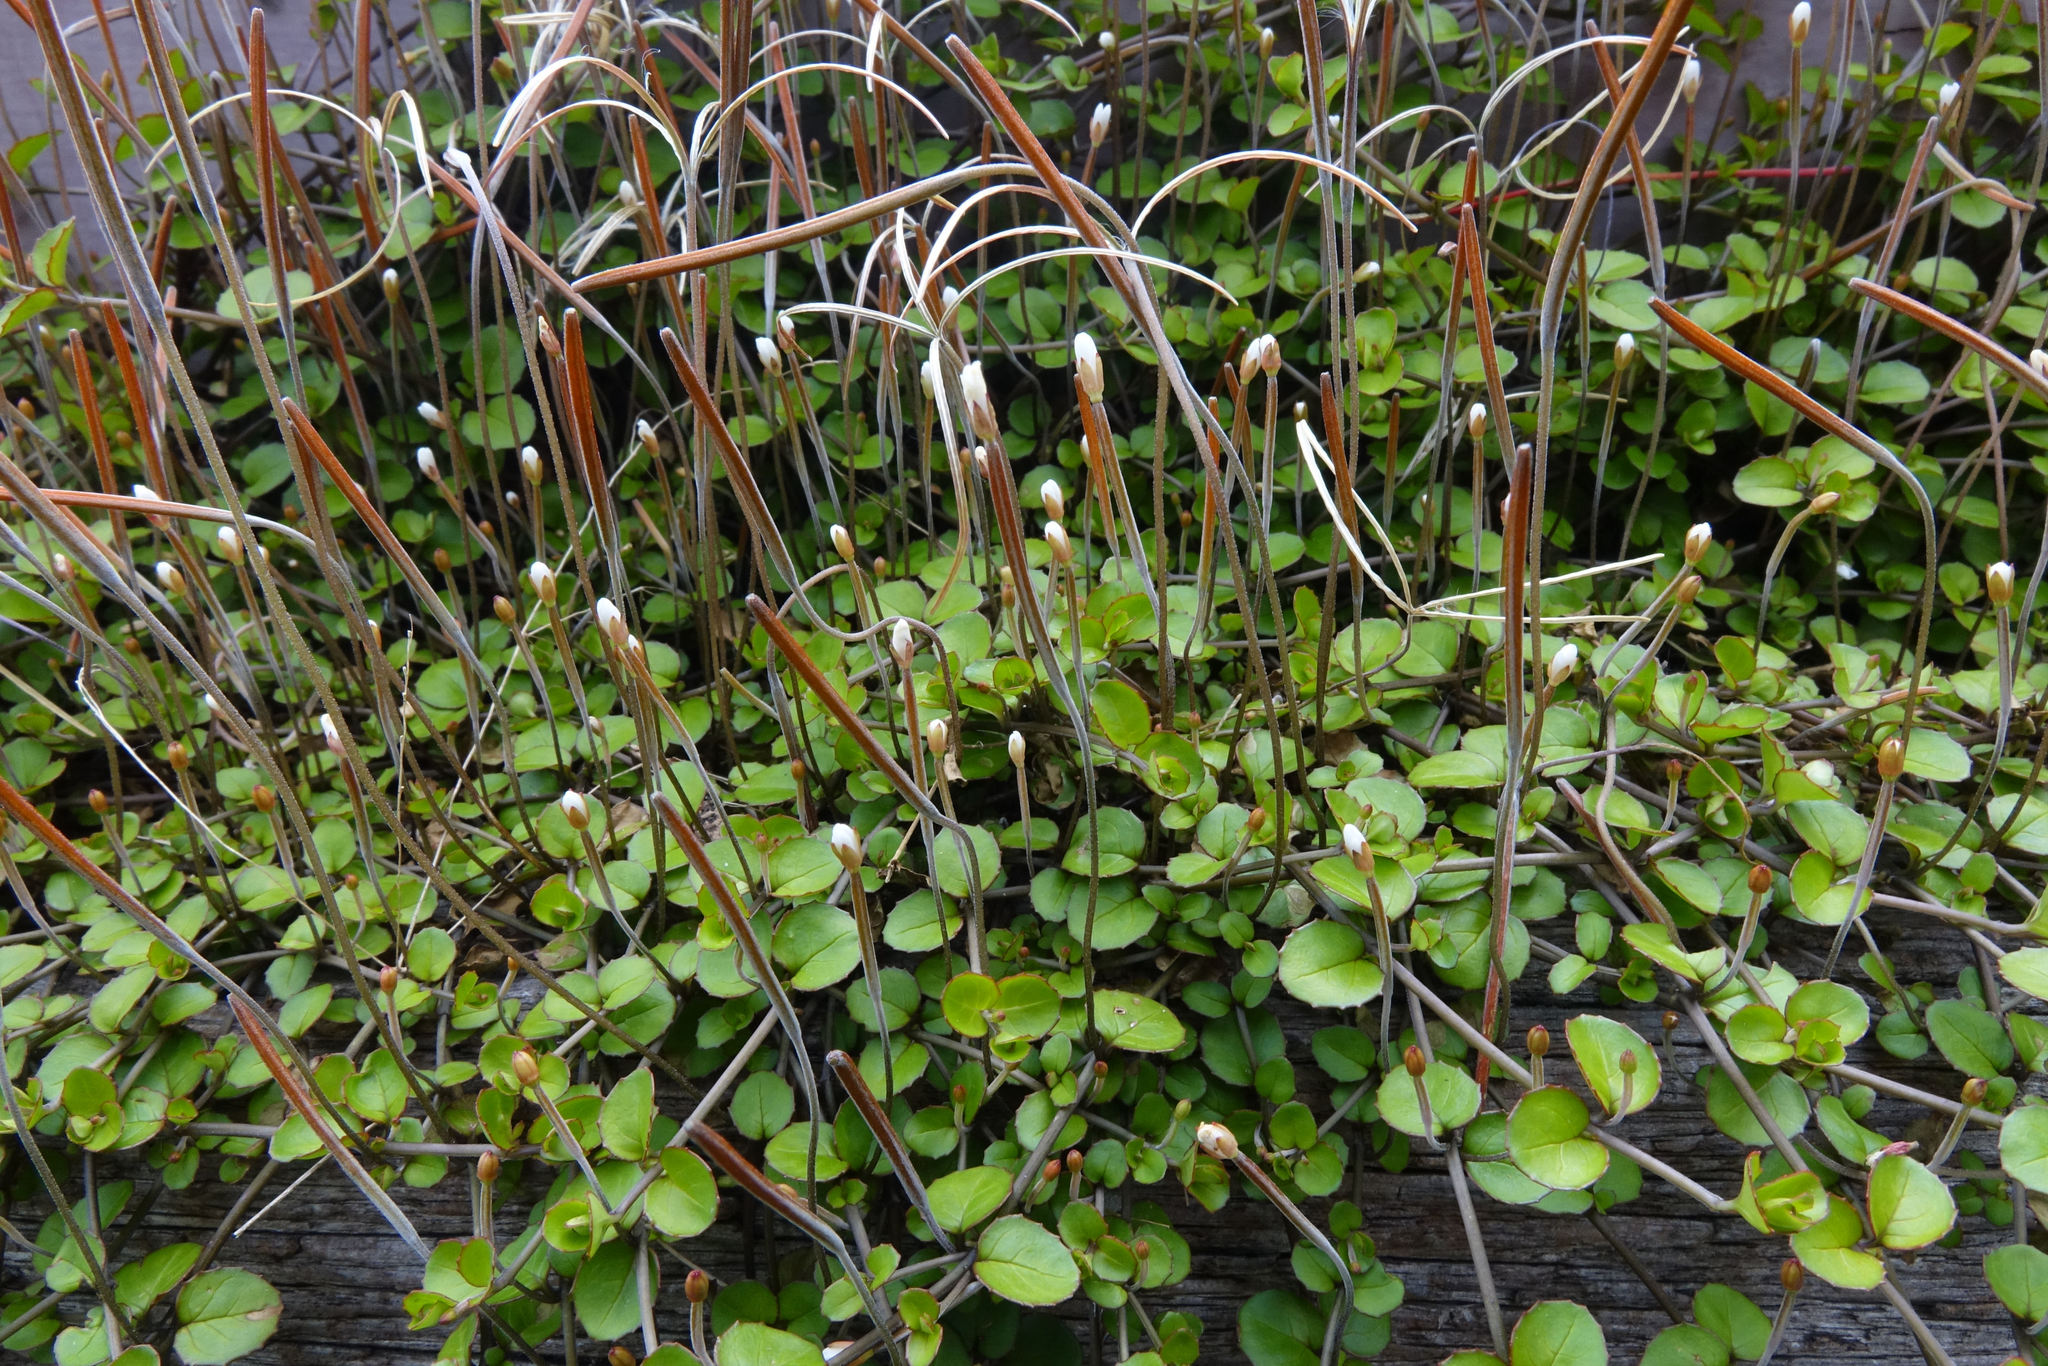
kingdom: Plantae
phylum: Tracheophyta
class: Magnoliopsida
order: Myrtales
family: Onagraceae
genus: Epilobium
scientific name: Epilobium nummularifolium
